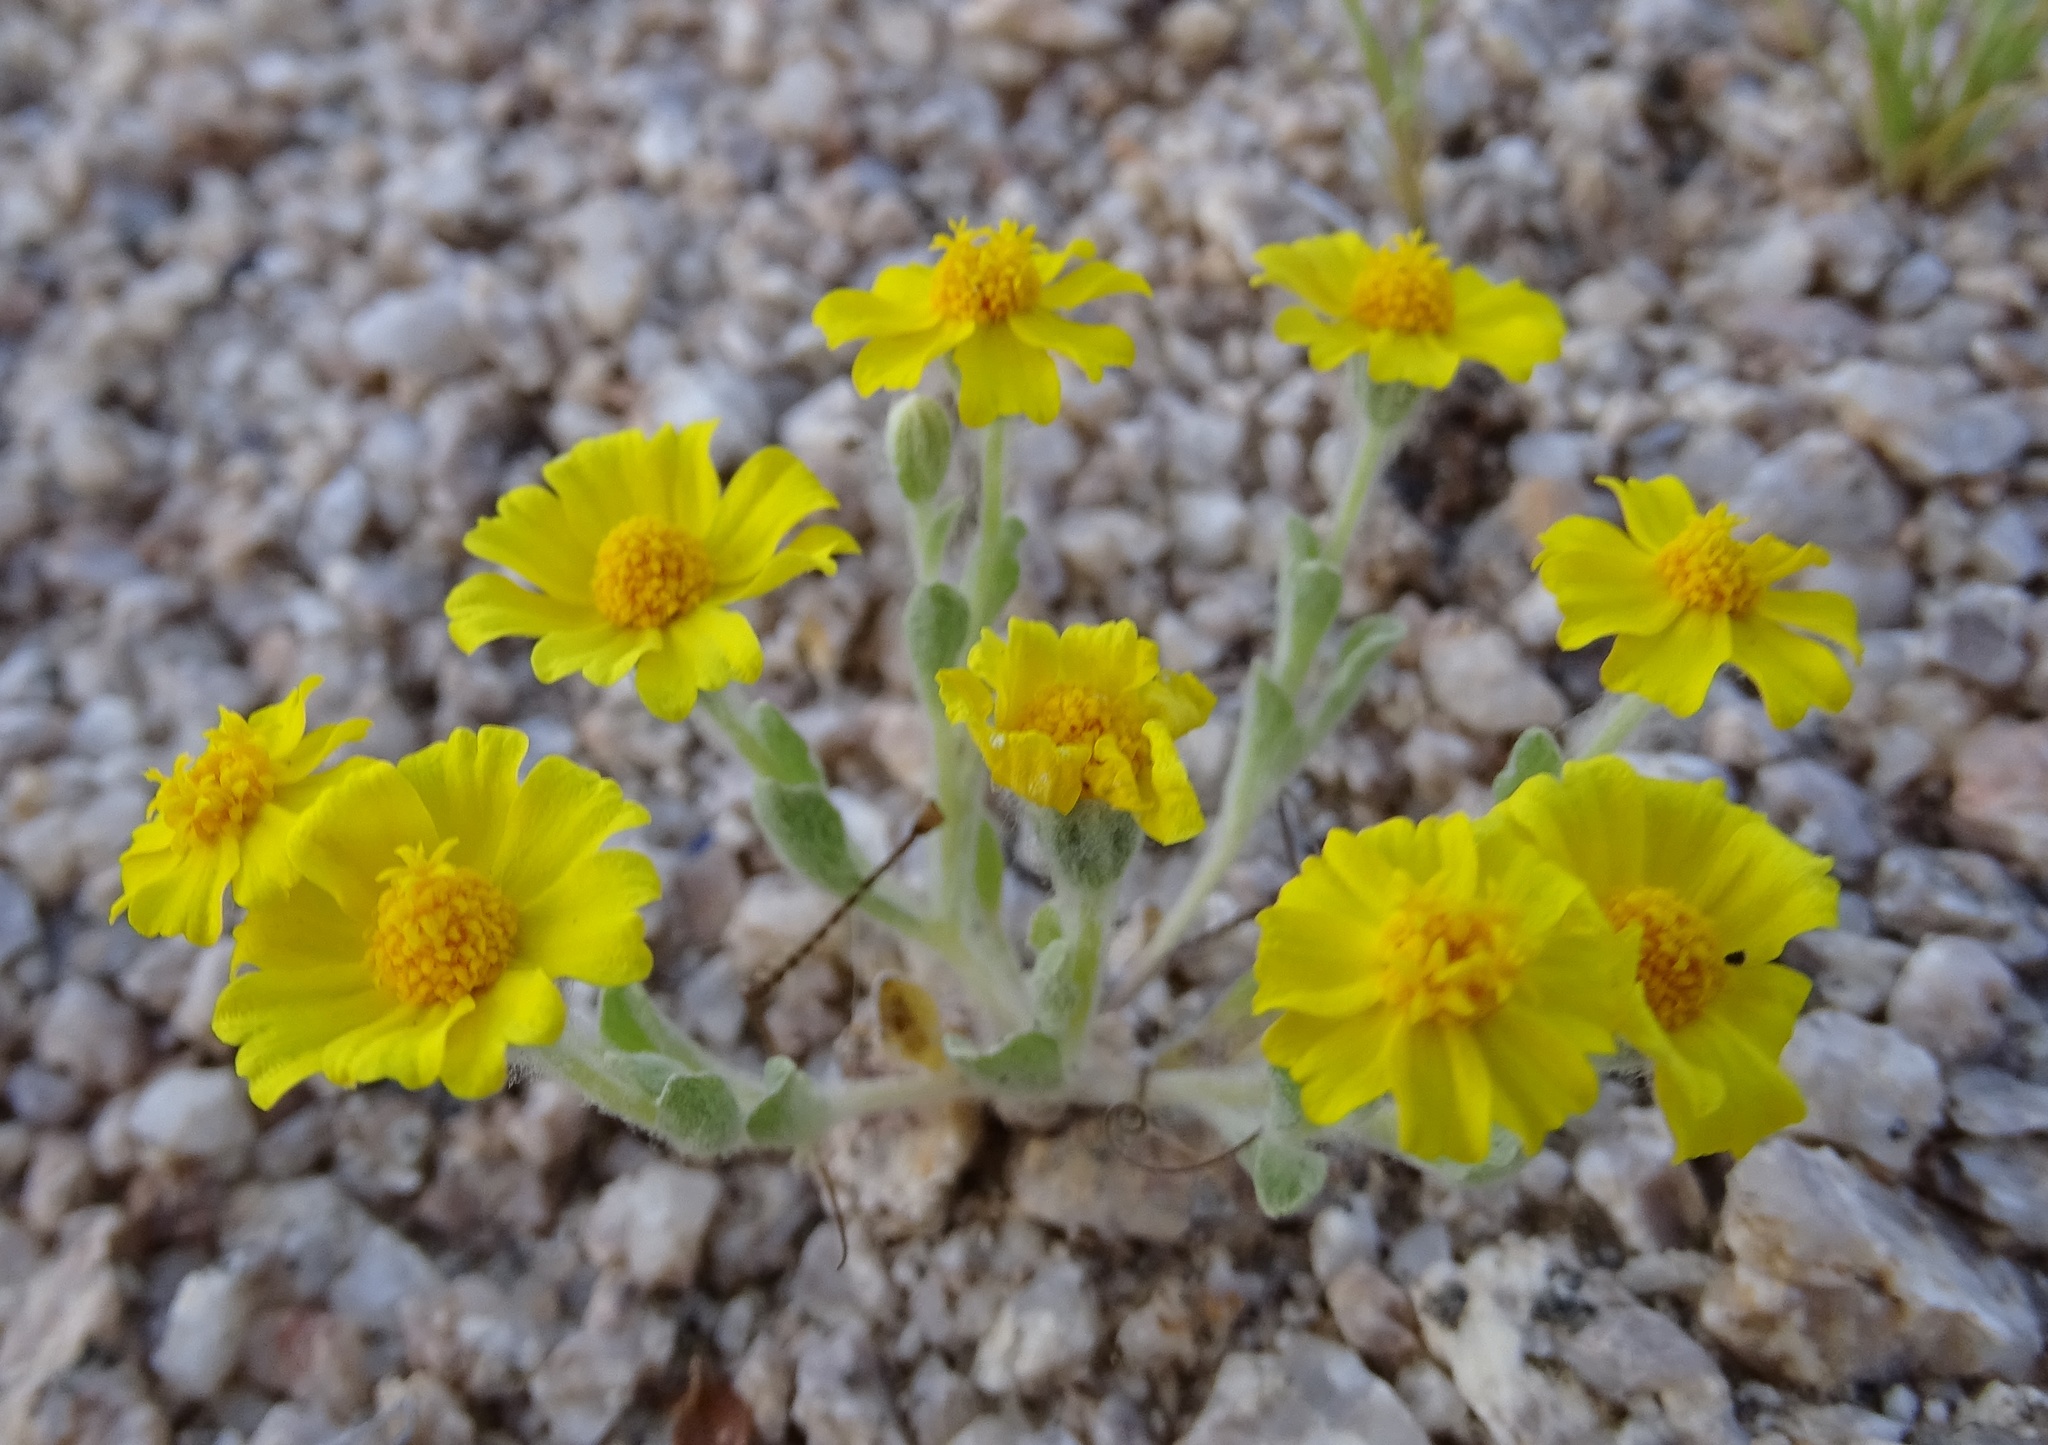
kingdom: Plantae
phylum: Tracheophyta
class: Magnoliopsida
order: Asterales
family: Asteraceae
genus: Eriophyllum
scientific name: Eriophyllum wallacei
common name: Wallace's woolly daisy
